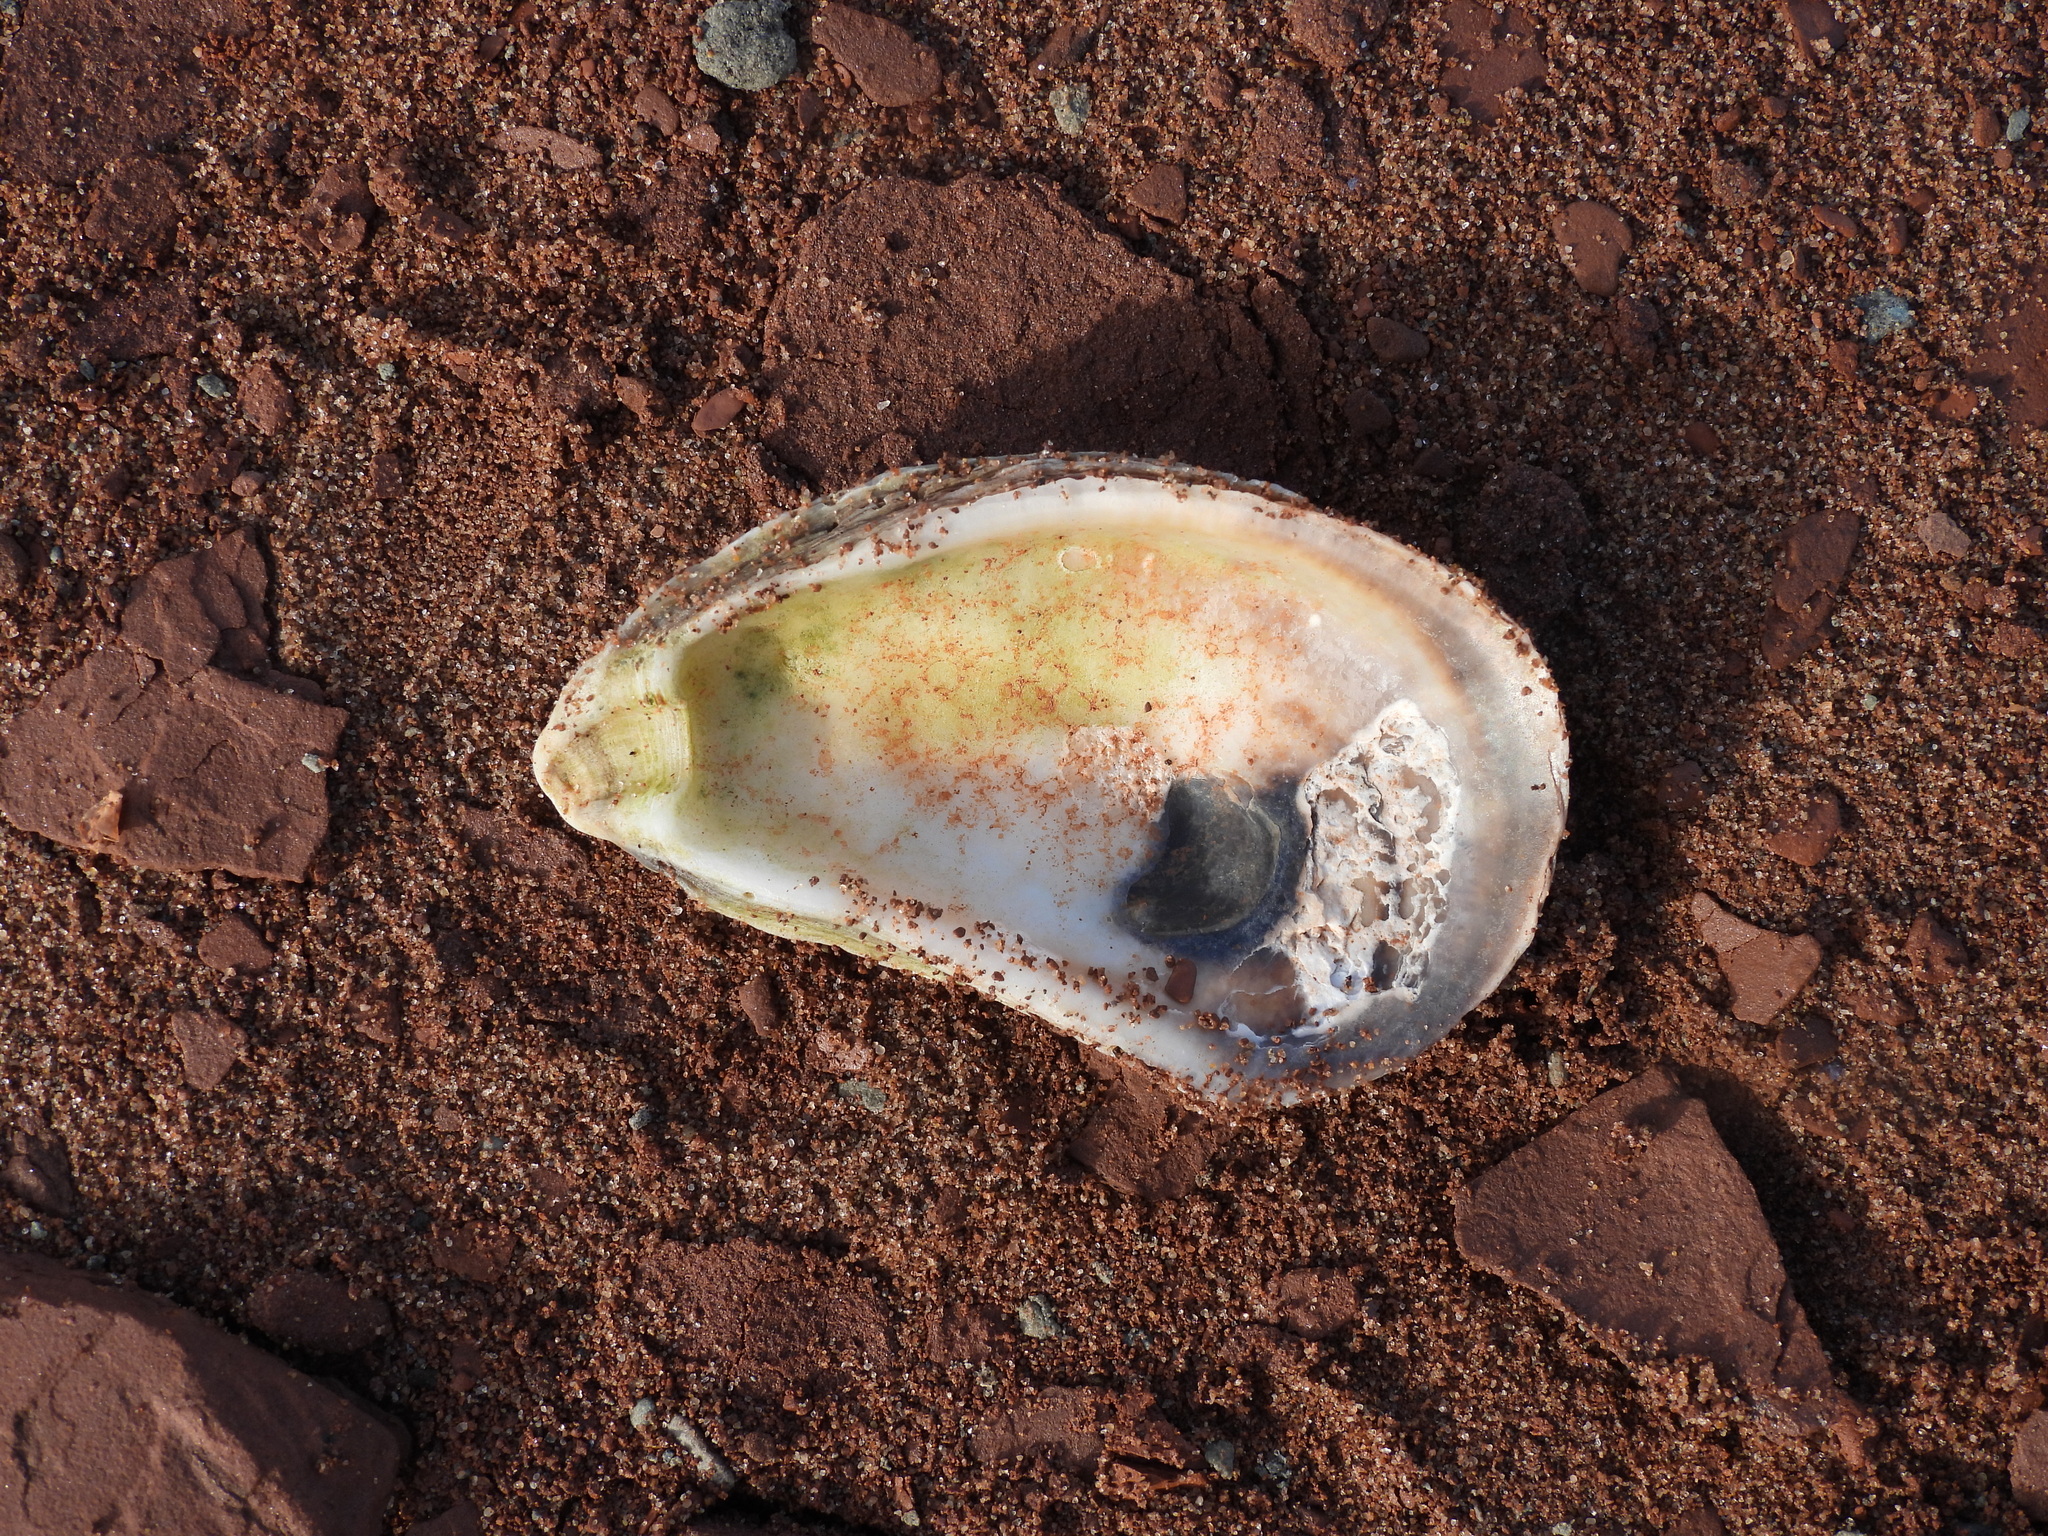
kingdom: Animalia
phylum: Mollusca
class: Bivalvia
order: Ostreida
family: Ostreidae
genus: Crassostrea
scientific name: Crassostrea virginica
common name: American oyster
